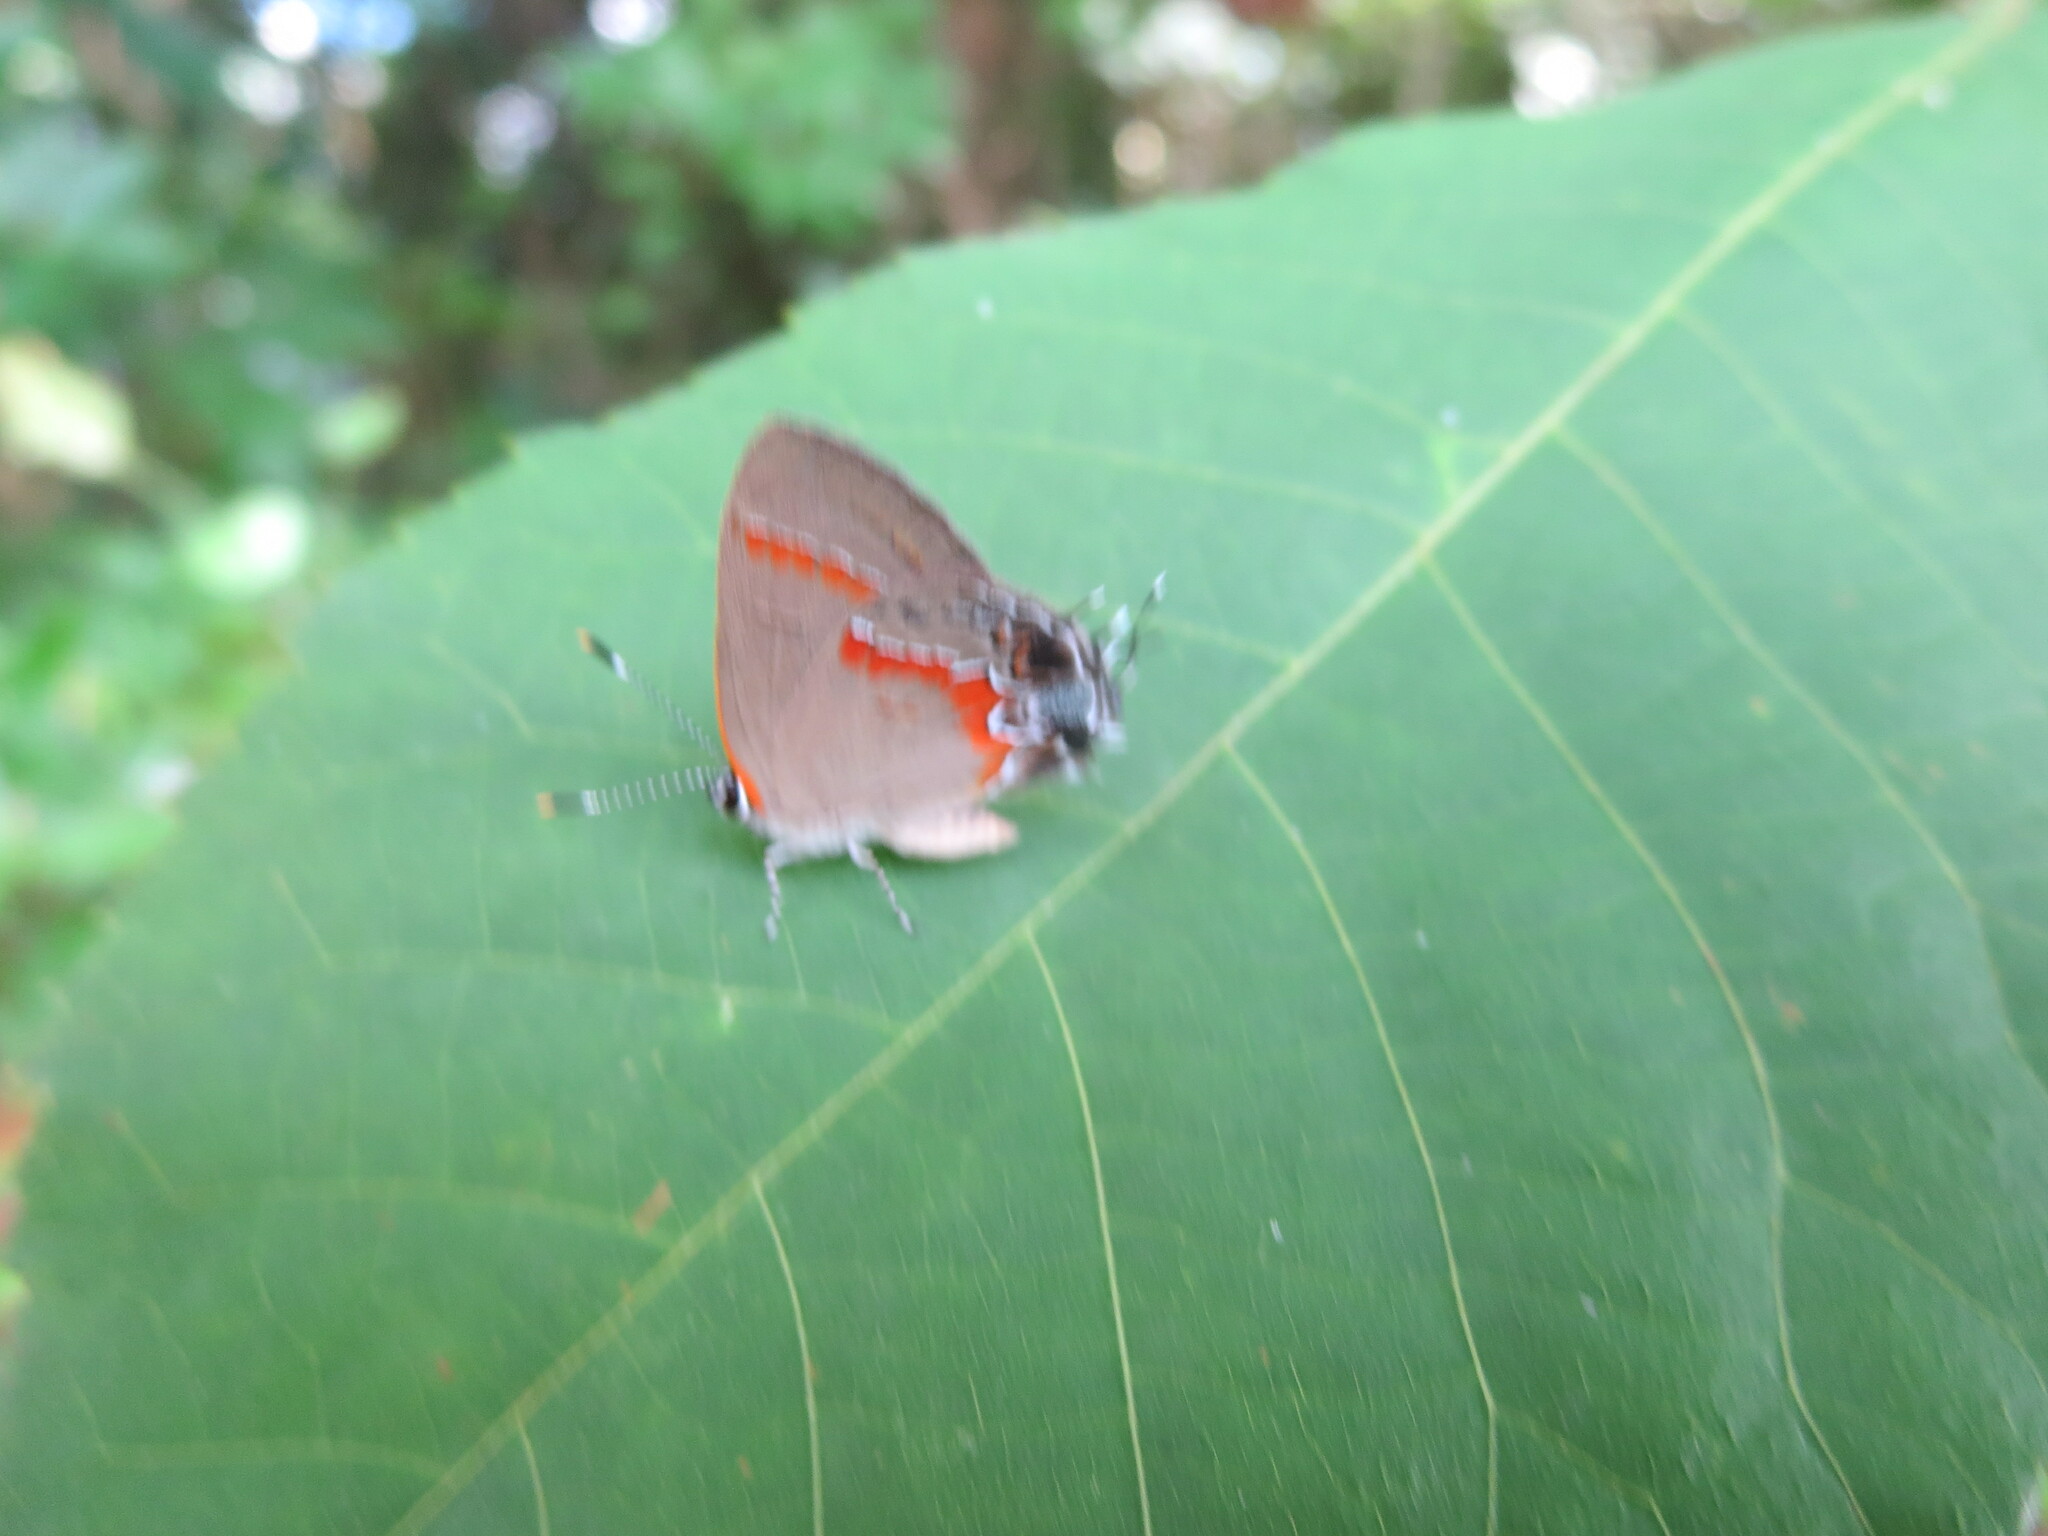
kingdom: Animalia
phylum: Arthropoda
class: Insecta
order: Lepidoptera
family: Lycaenidae
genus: Calycopis
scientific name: Calycopis cecrops
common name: Red-banded hairstreak
